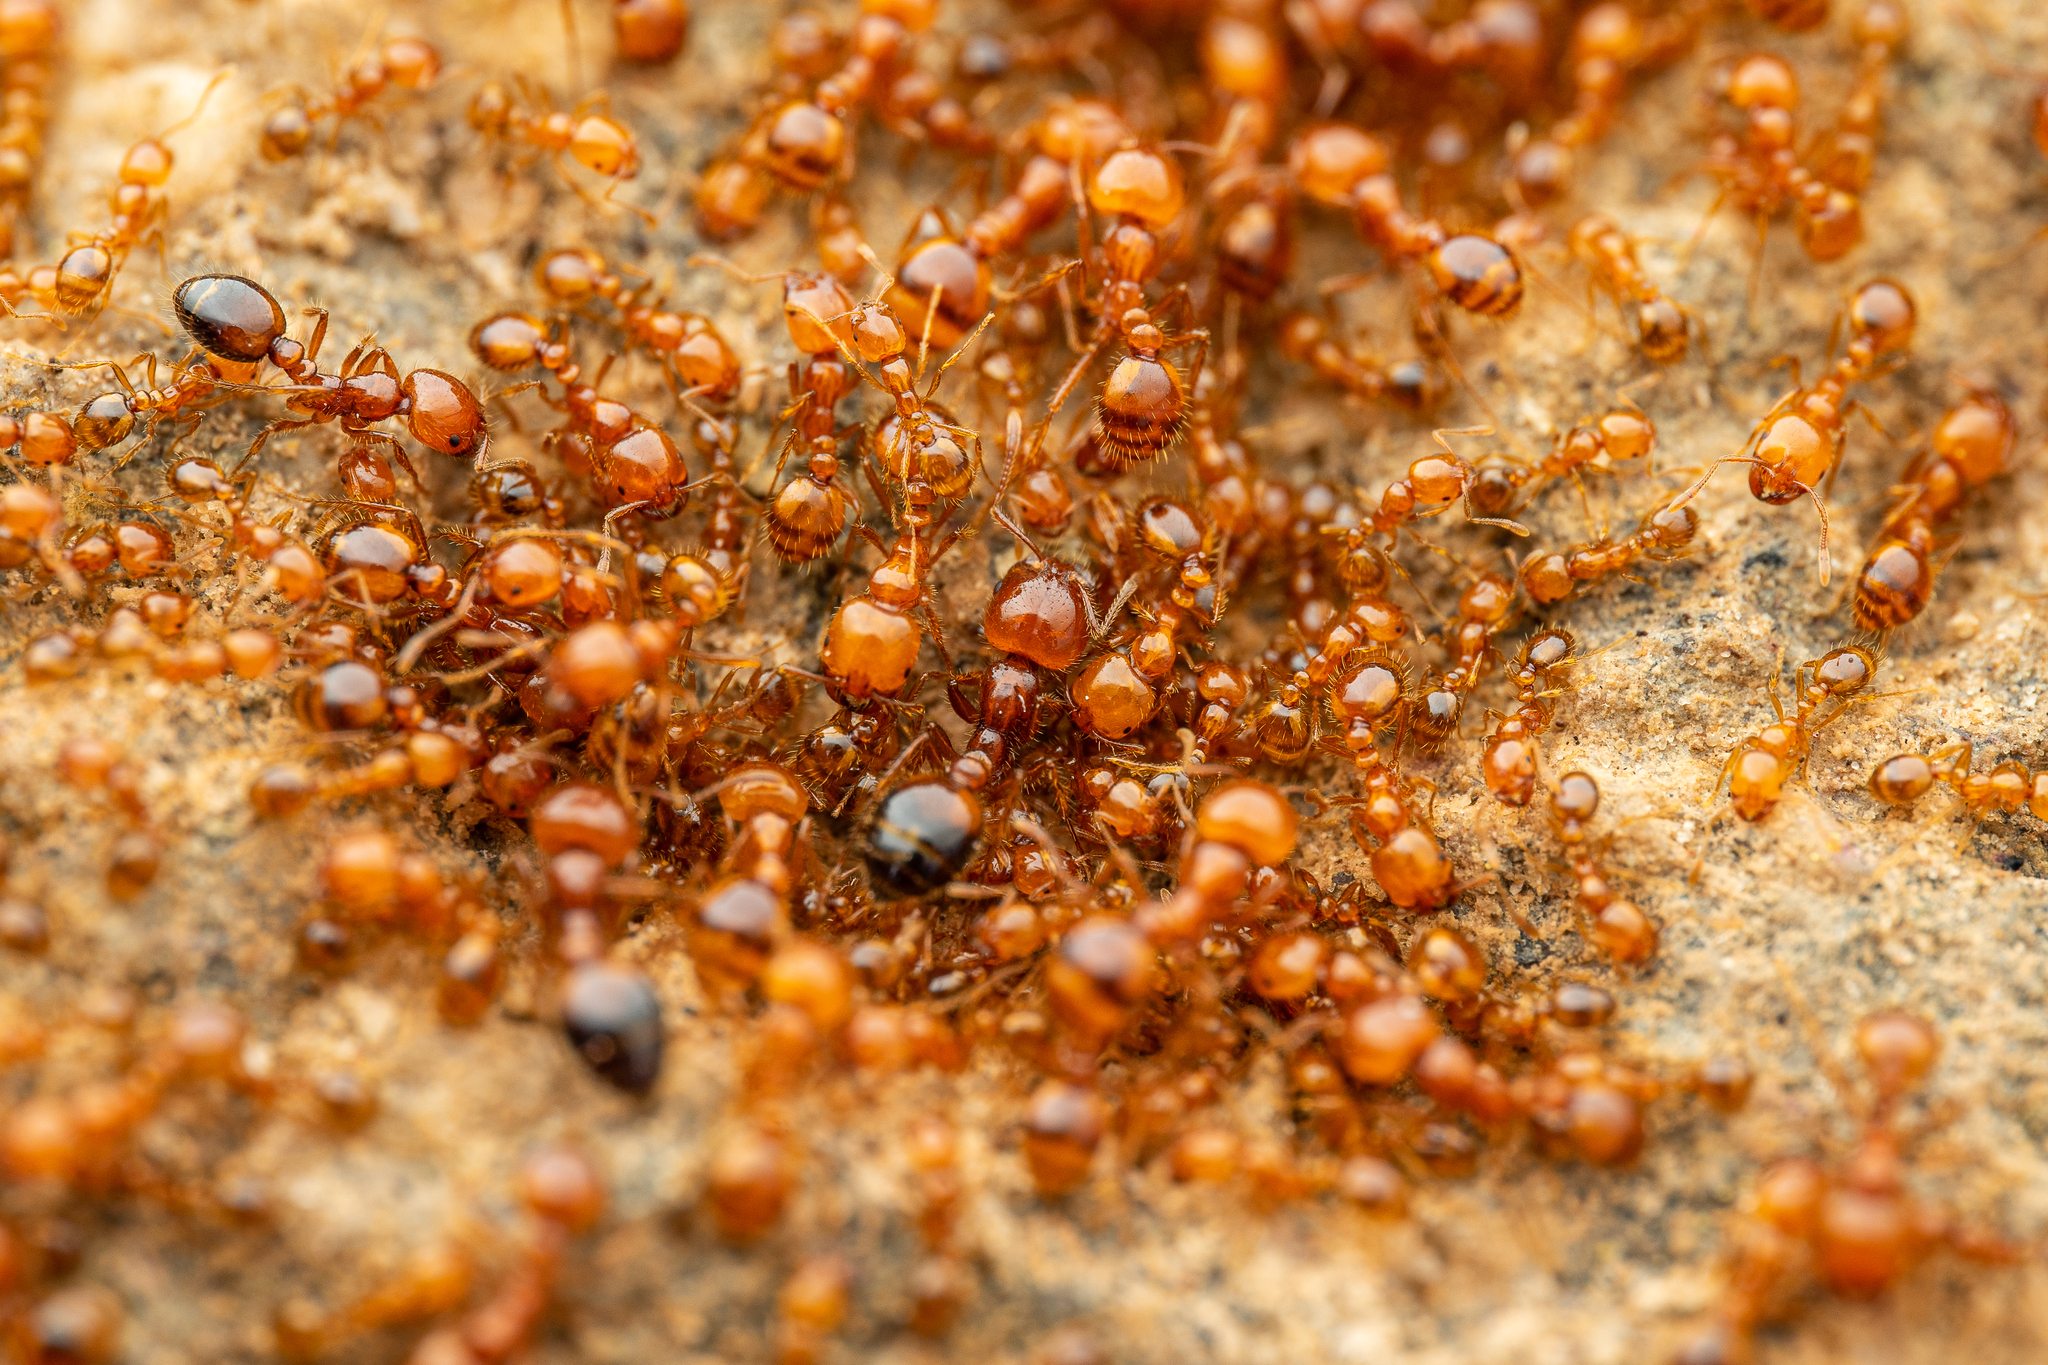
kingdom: Animalia
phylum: Arthropoda
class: Insecta
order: Hymenoptera
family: Formicidae
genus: Solenopsis
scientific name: Solenopsis amblychila
